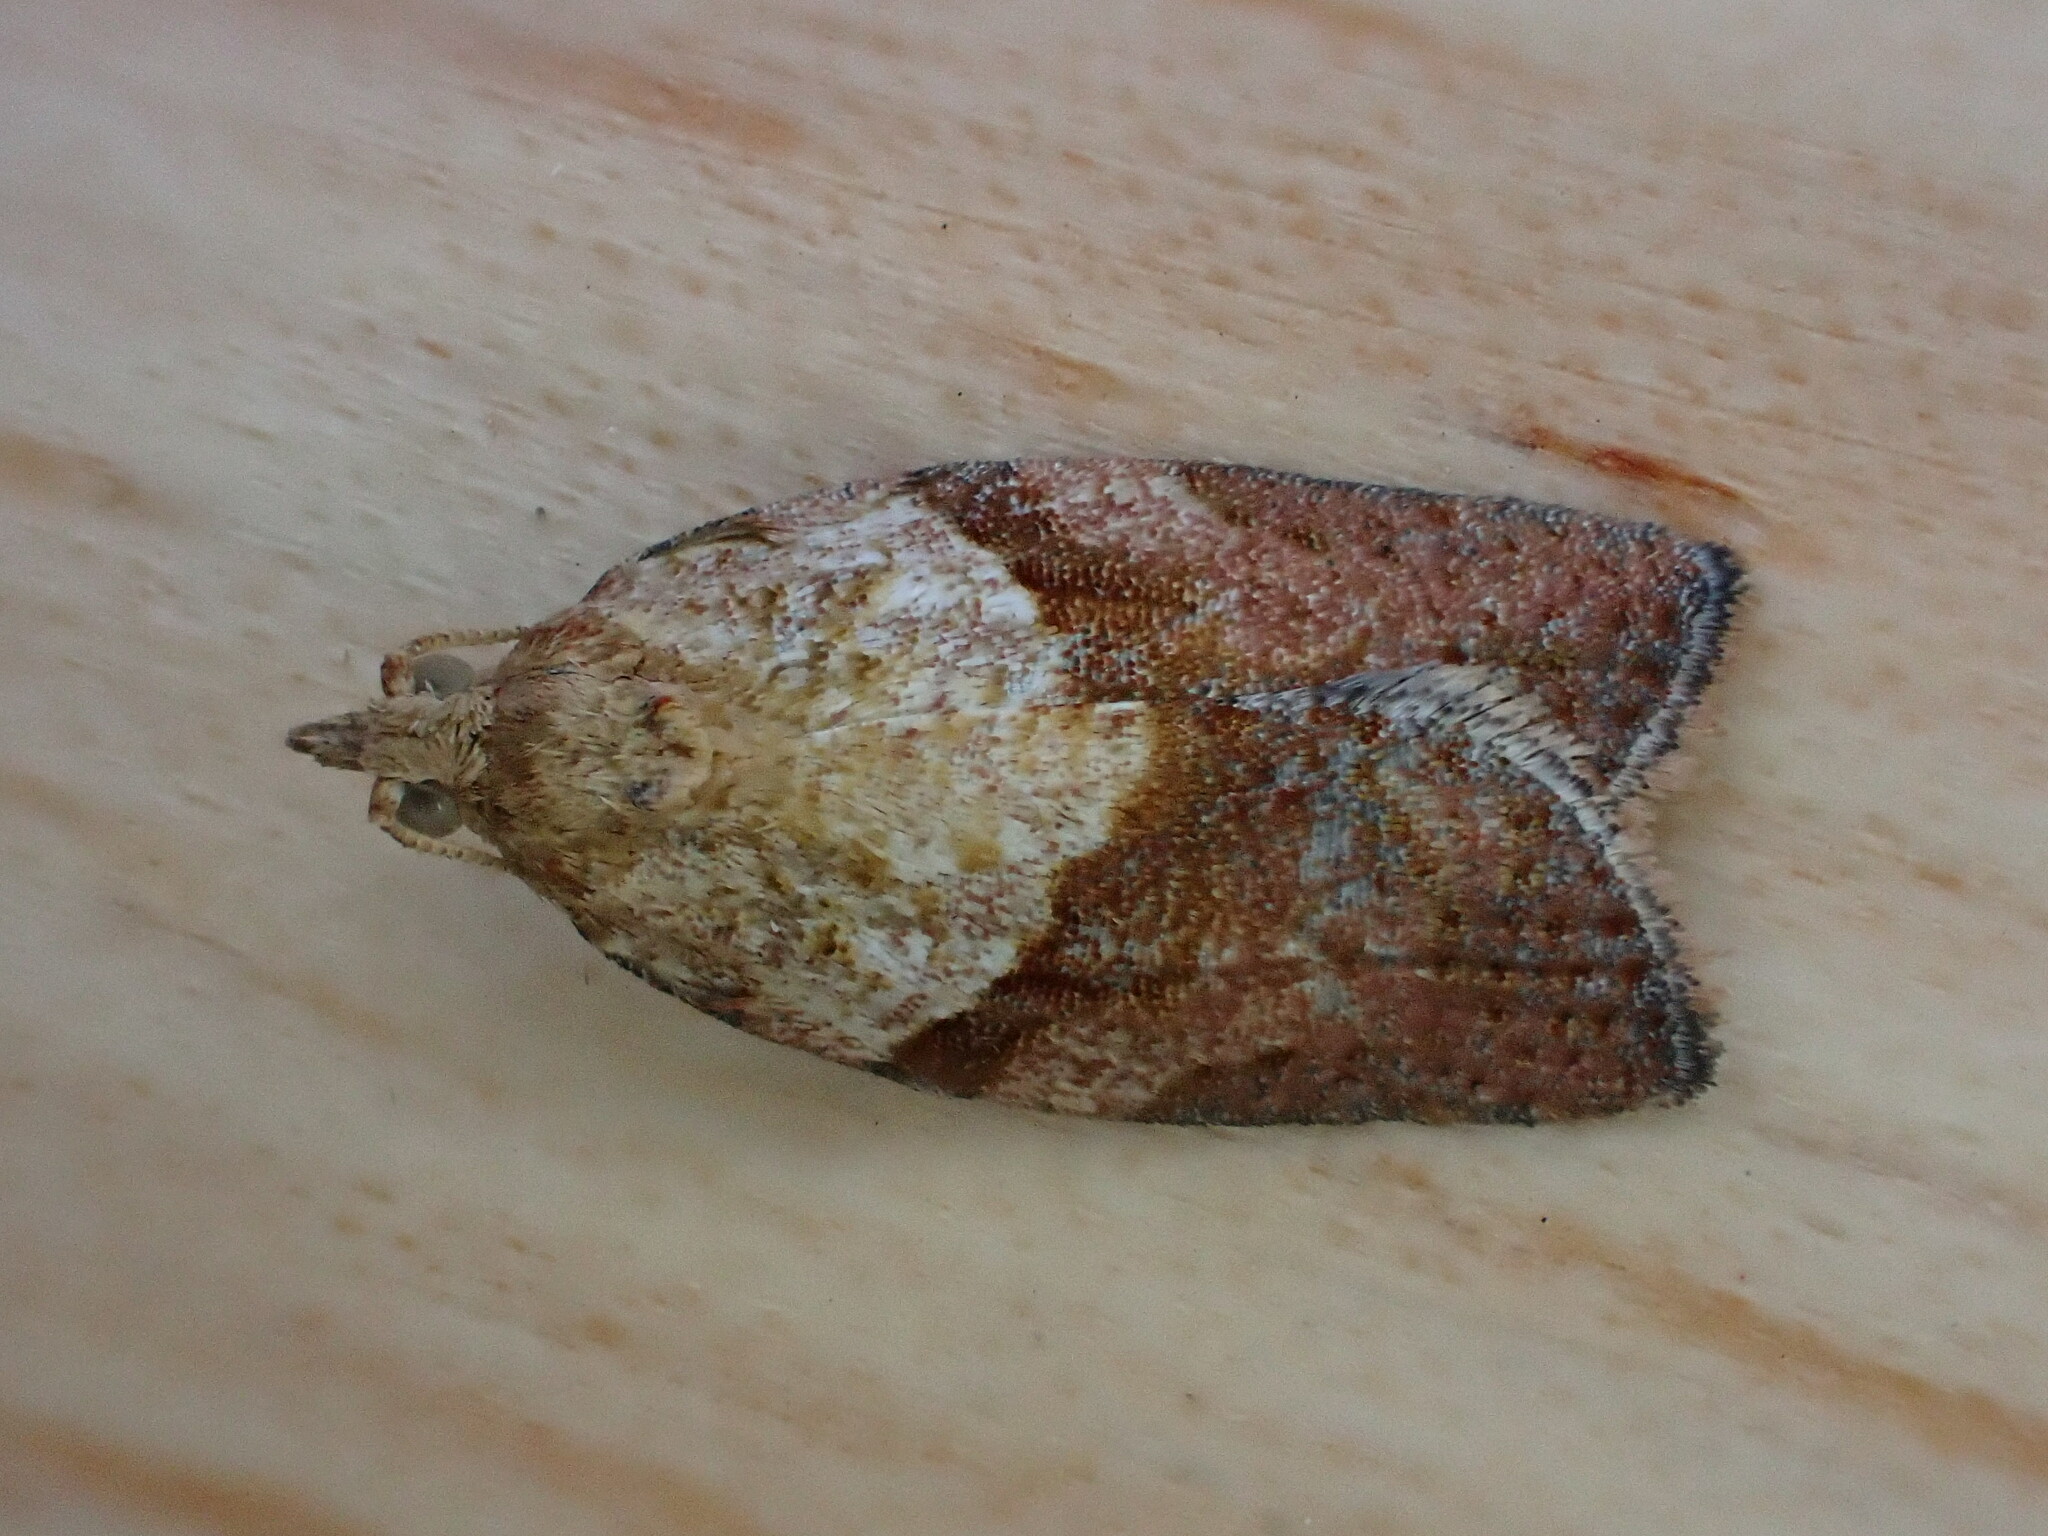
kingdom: Animalia
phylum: Arthropoda
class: Insecta
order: Lepidoptera
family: Tortricidae
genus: Epiphyas
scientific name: Epiphyas postvittana
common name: Light brown apple moth
